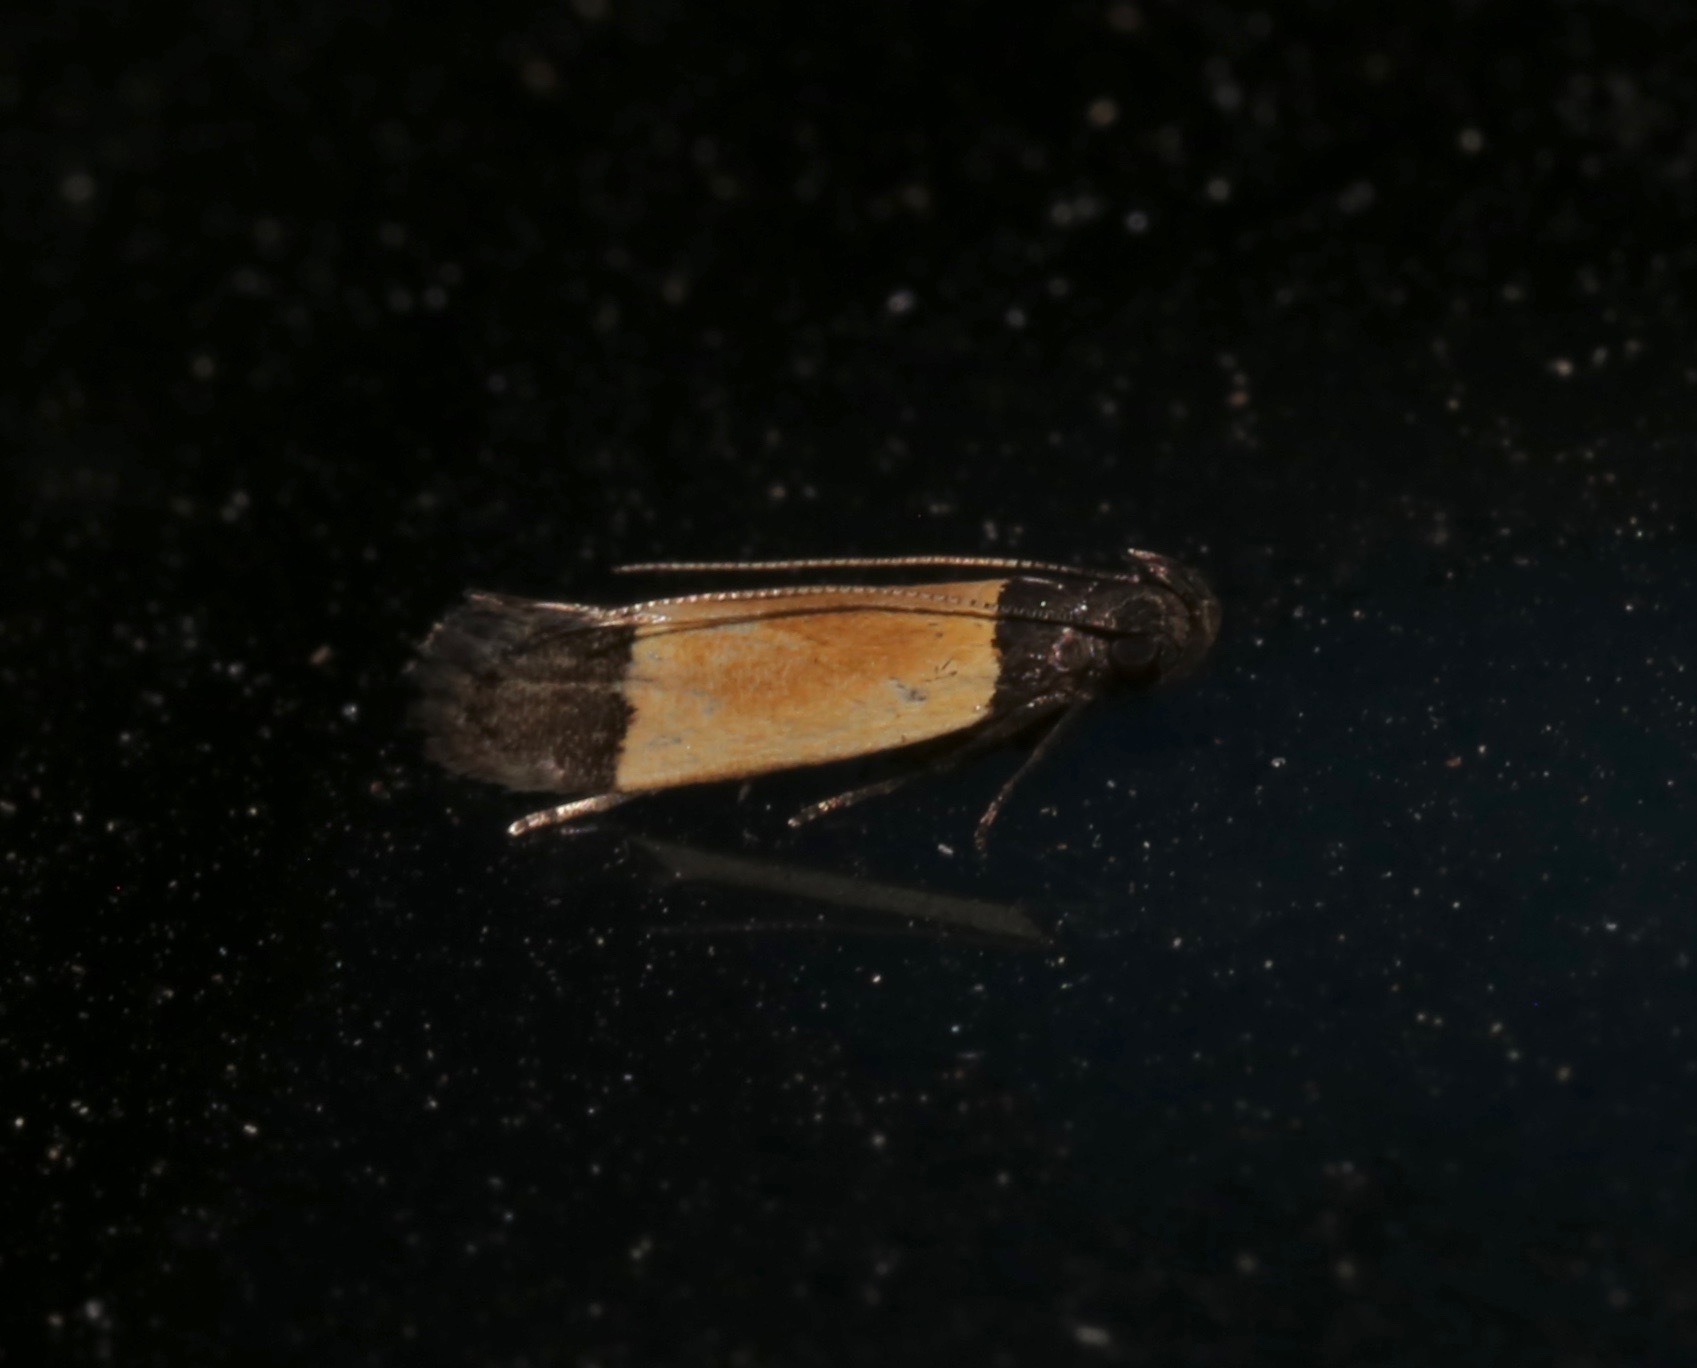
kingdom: Animalia
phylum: Arthropoda
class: Insecta
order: Lepidoptera
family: Gelechiidae
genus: Anacampsis
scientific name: Anacampsis coverdalella
